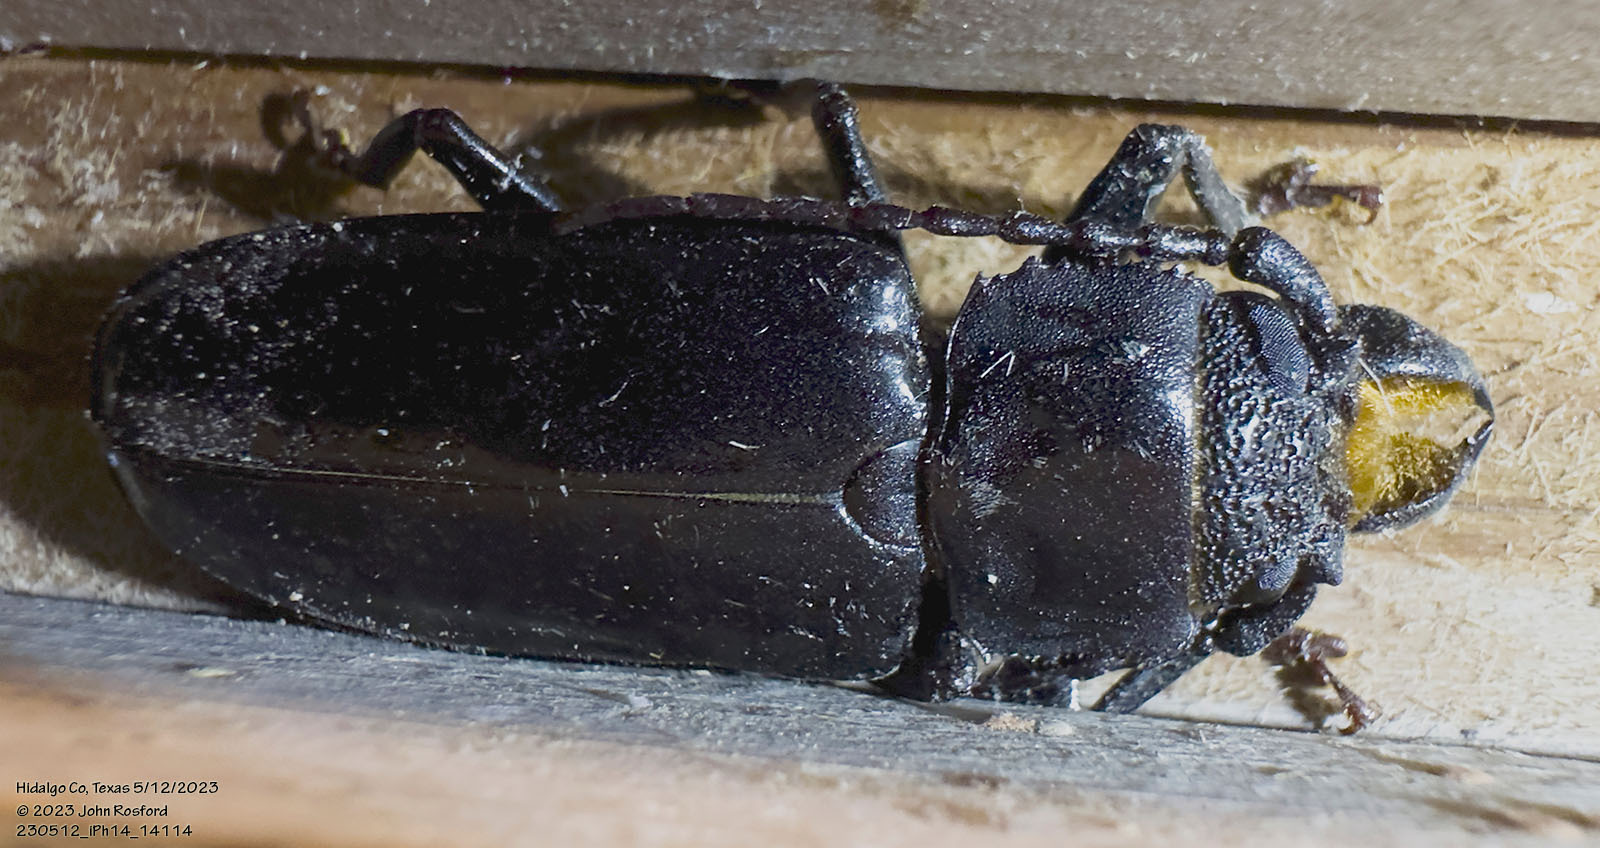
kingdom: Animalia
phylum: Arthropoda
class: Insecta
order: Coleoptera
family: Cerambycidae
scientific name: Cerambycidae
